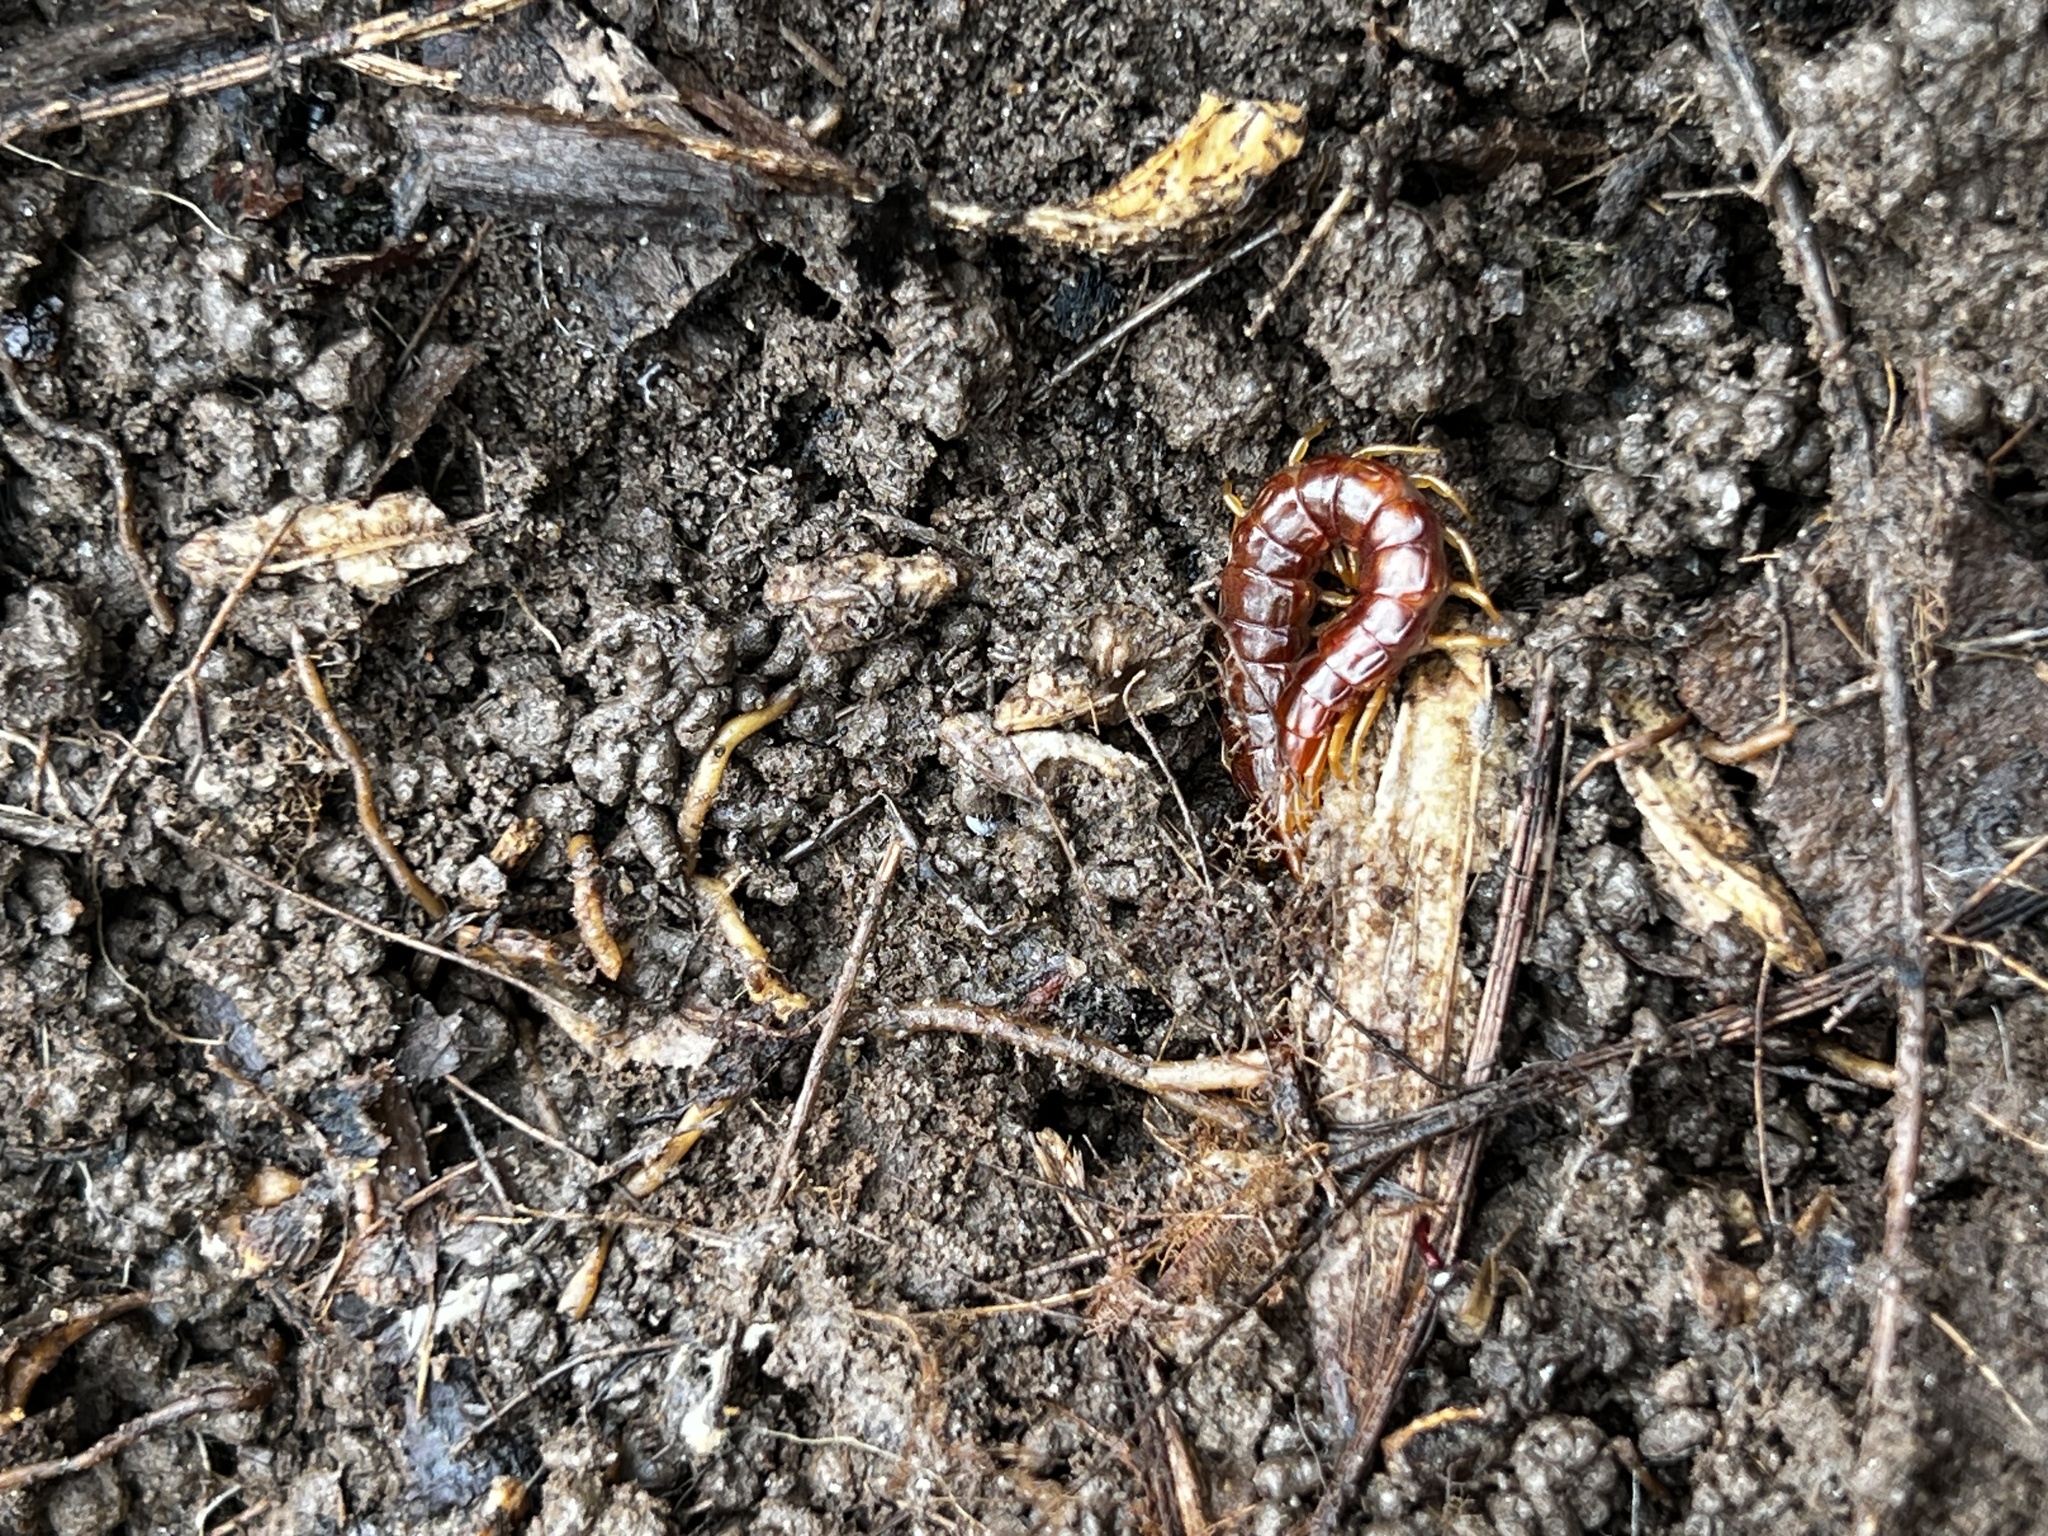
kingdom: Animalia
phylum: Arthropoda
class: Chilopoda
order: Scolopendromorpha
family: Scolopocryptopidae
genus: Scolopocryptops
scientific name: Scolopocryptops sexspinosus
